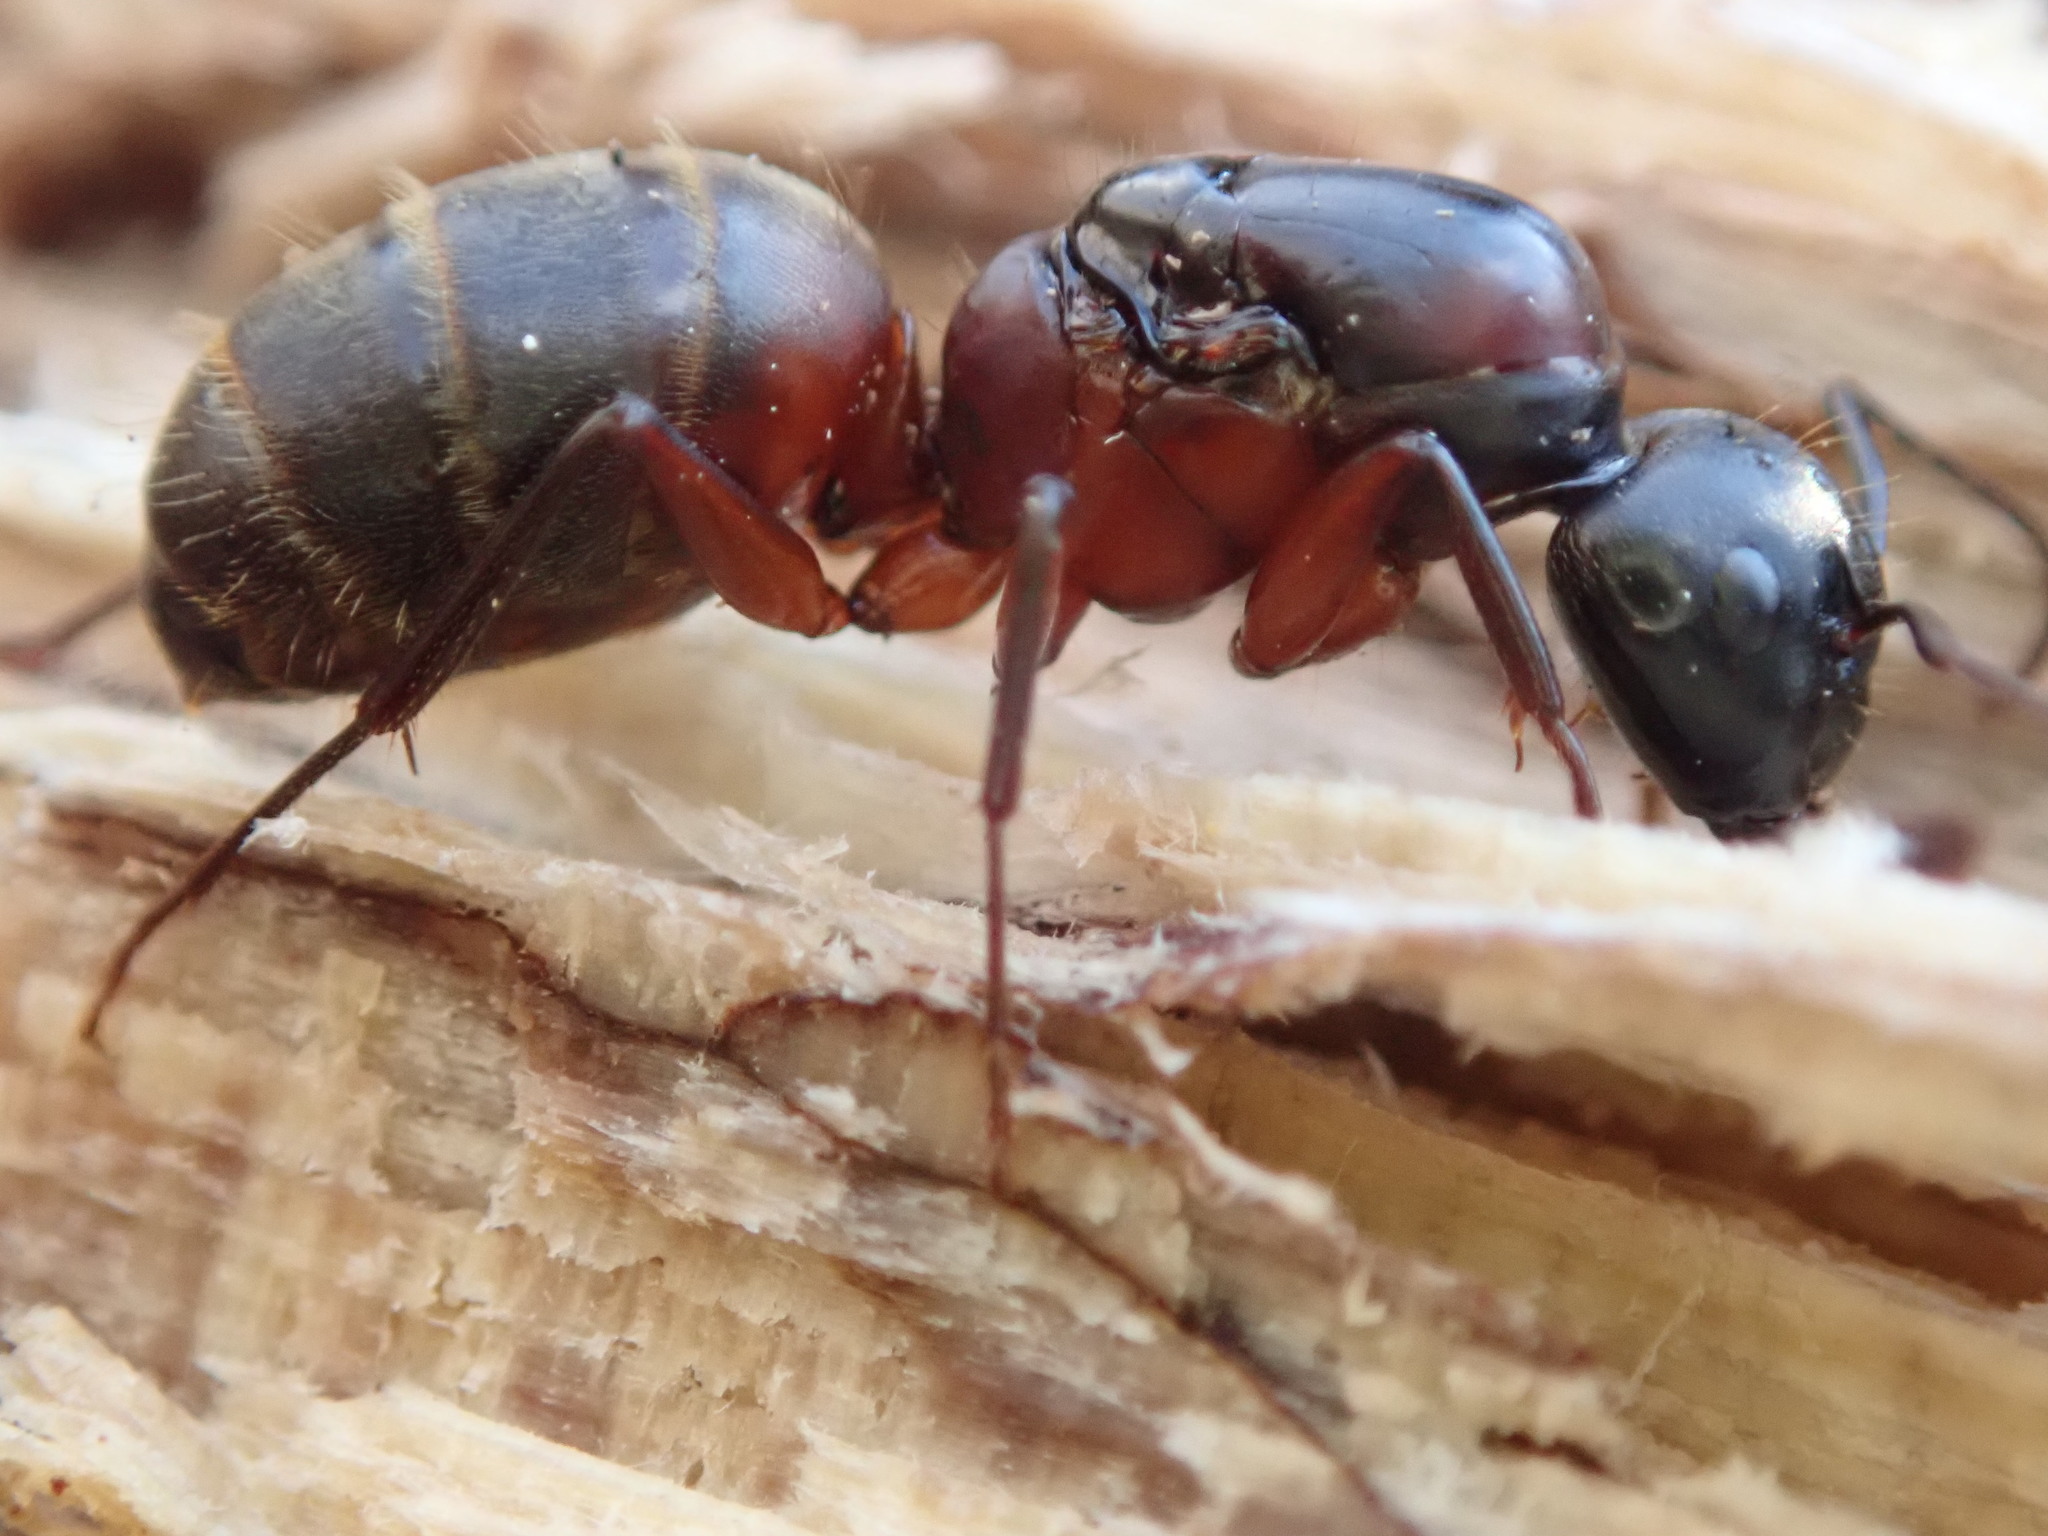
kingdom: Animalia
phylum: Arthropoda
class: Insecta
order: Hymenoptera
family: Formicidae
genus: Camponotus
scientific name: Camponotus chromaiodes
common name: Red carpenter ant
